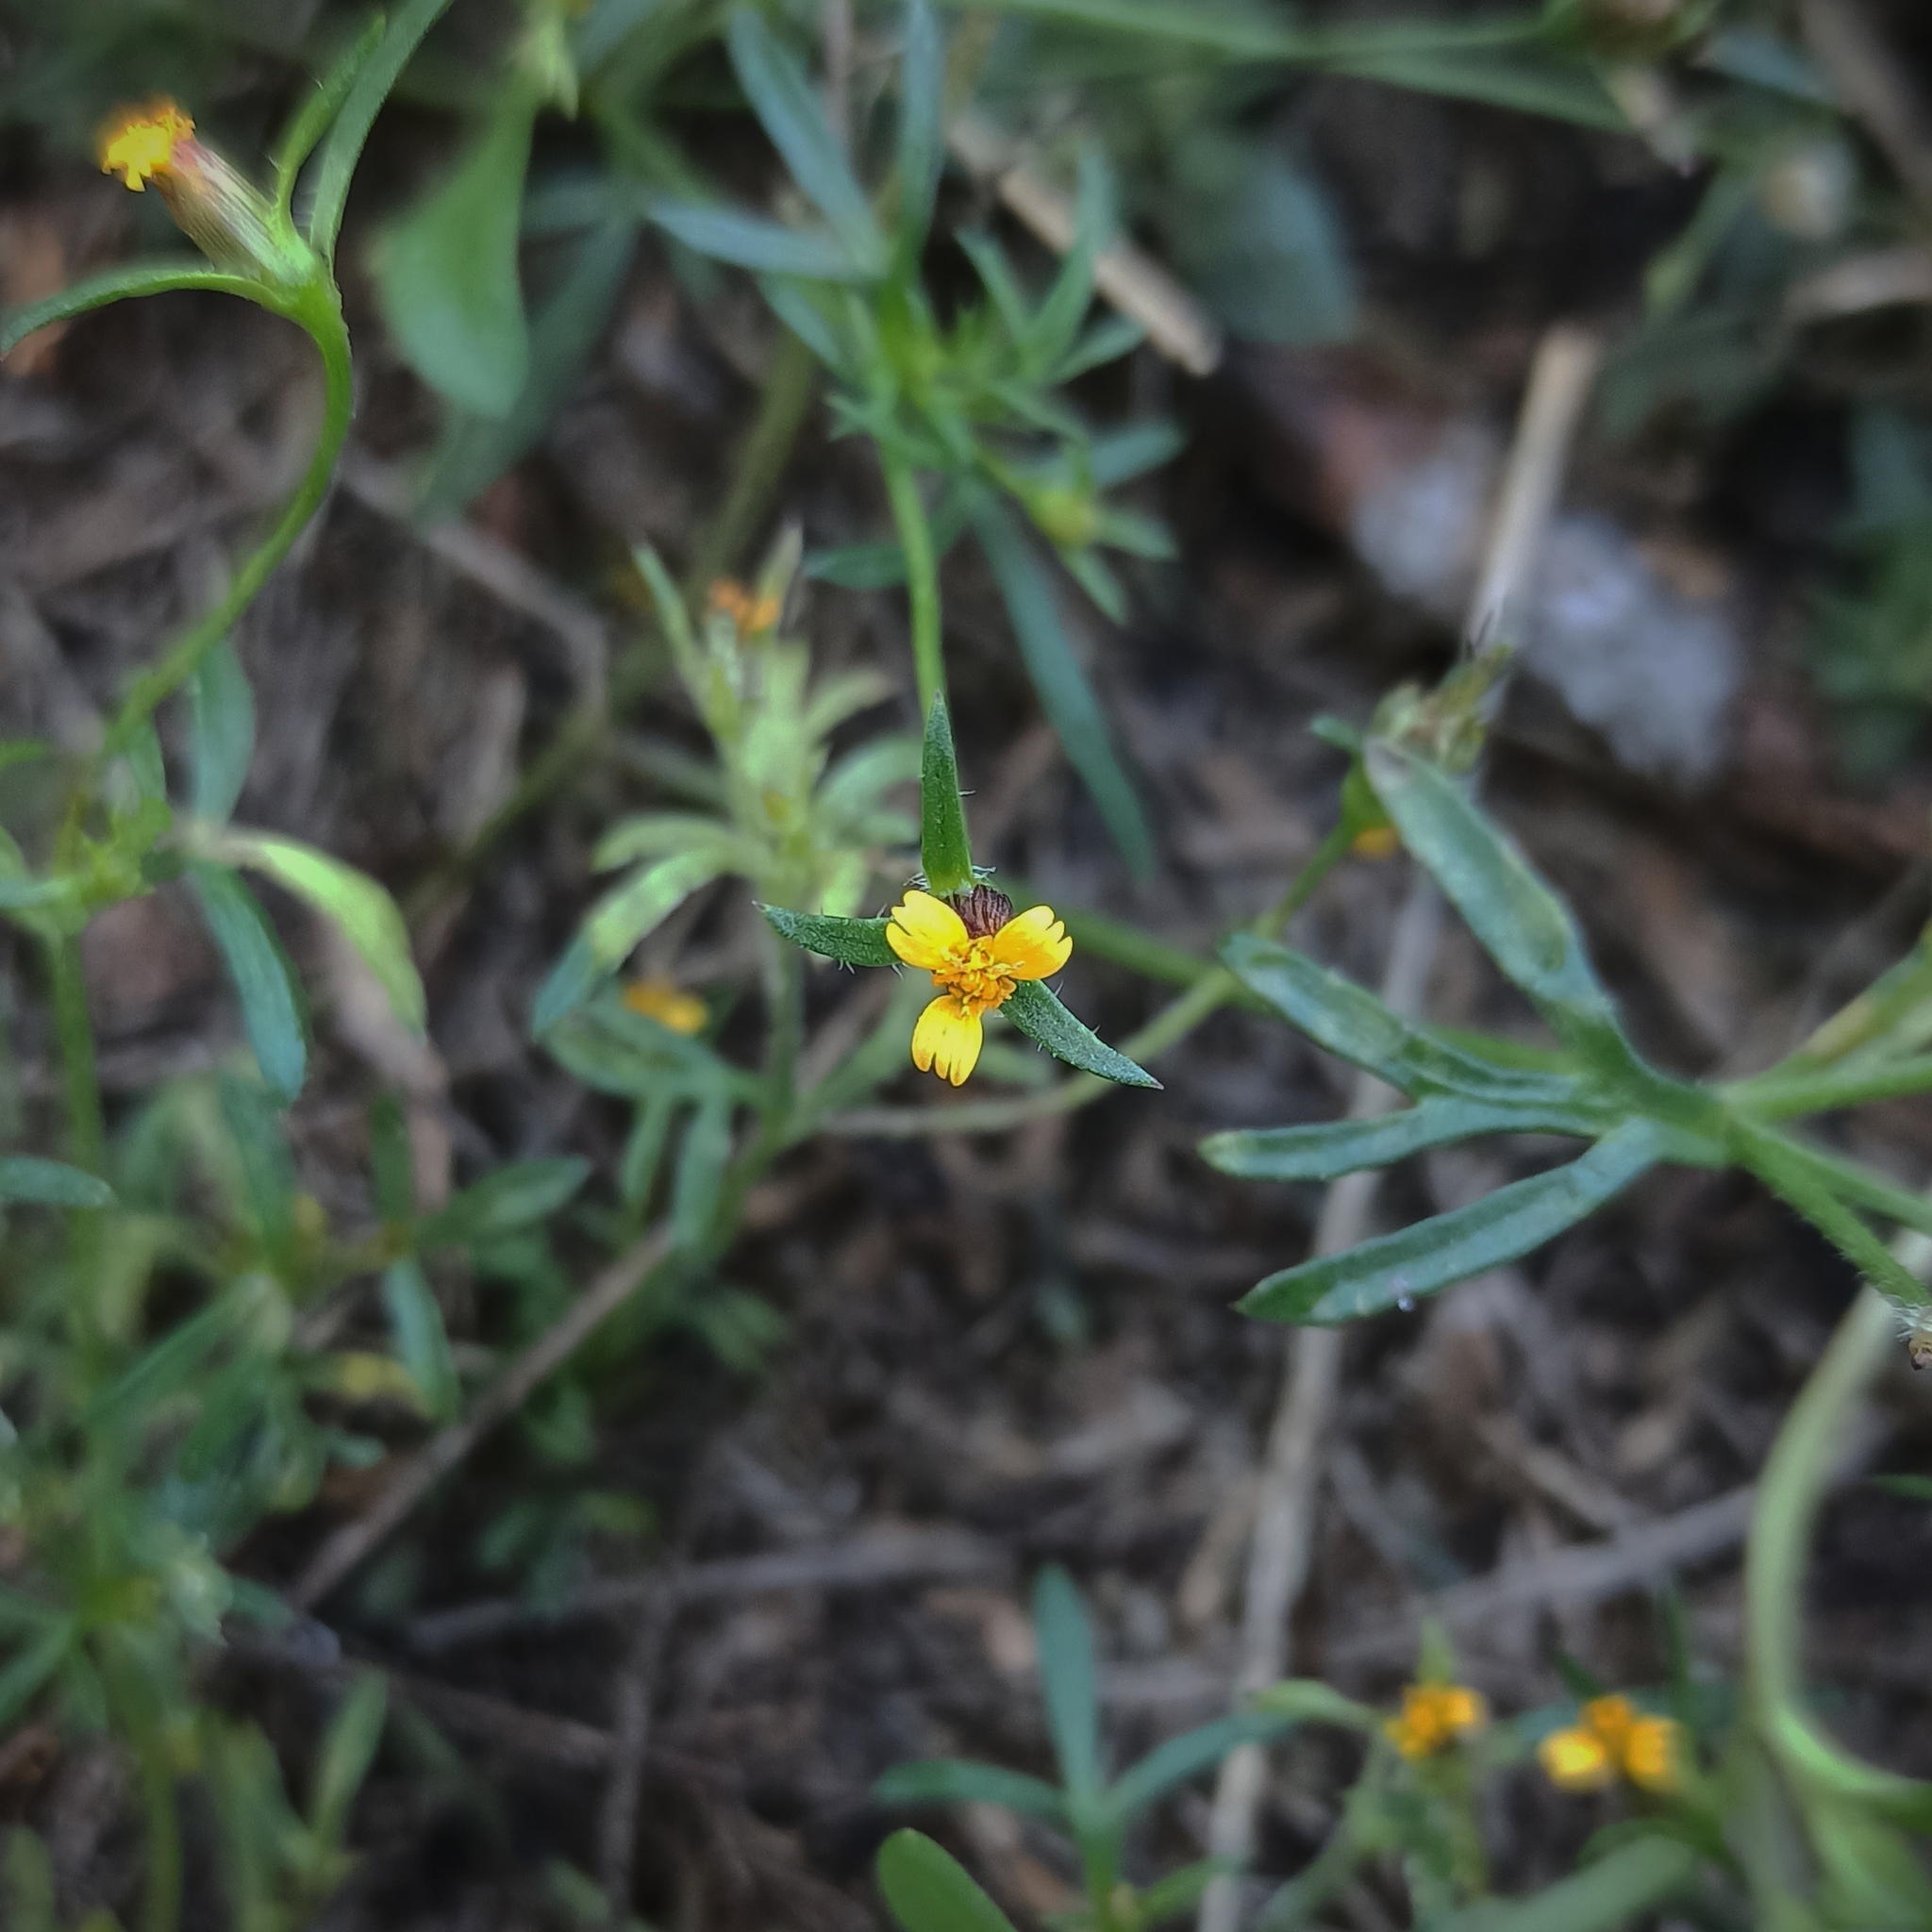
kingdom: Plantae
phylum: Tracheophyta
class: Magnoliopsida
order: Asterales
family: Asteraceae
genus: Heterosperma
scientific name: Heterosperma pinnatum
